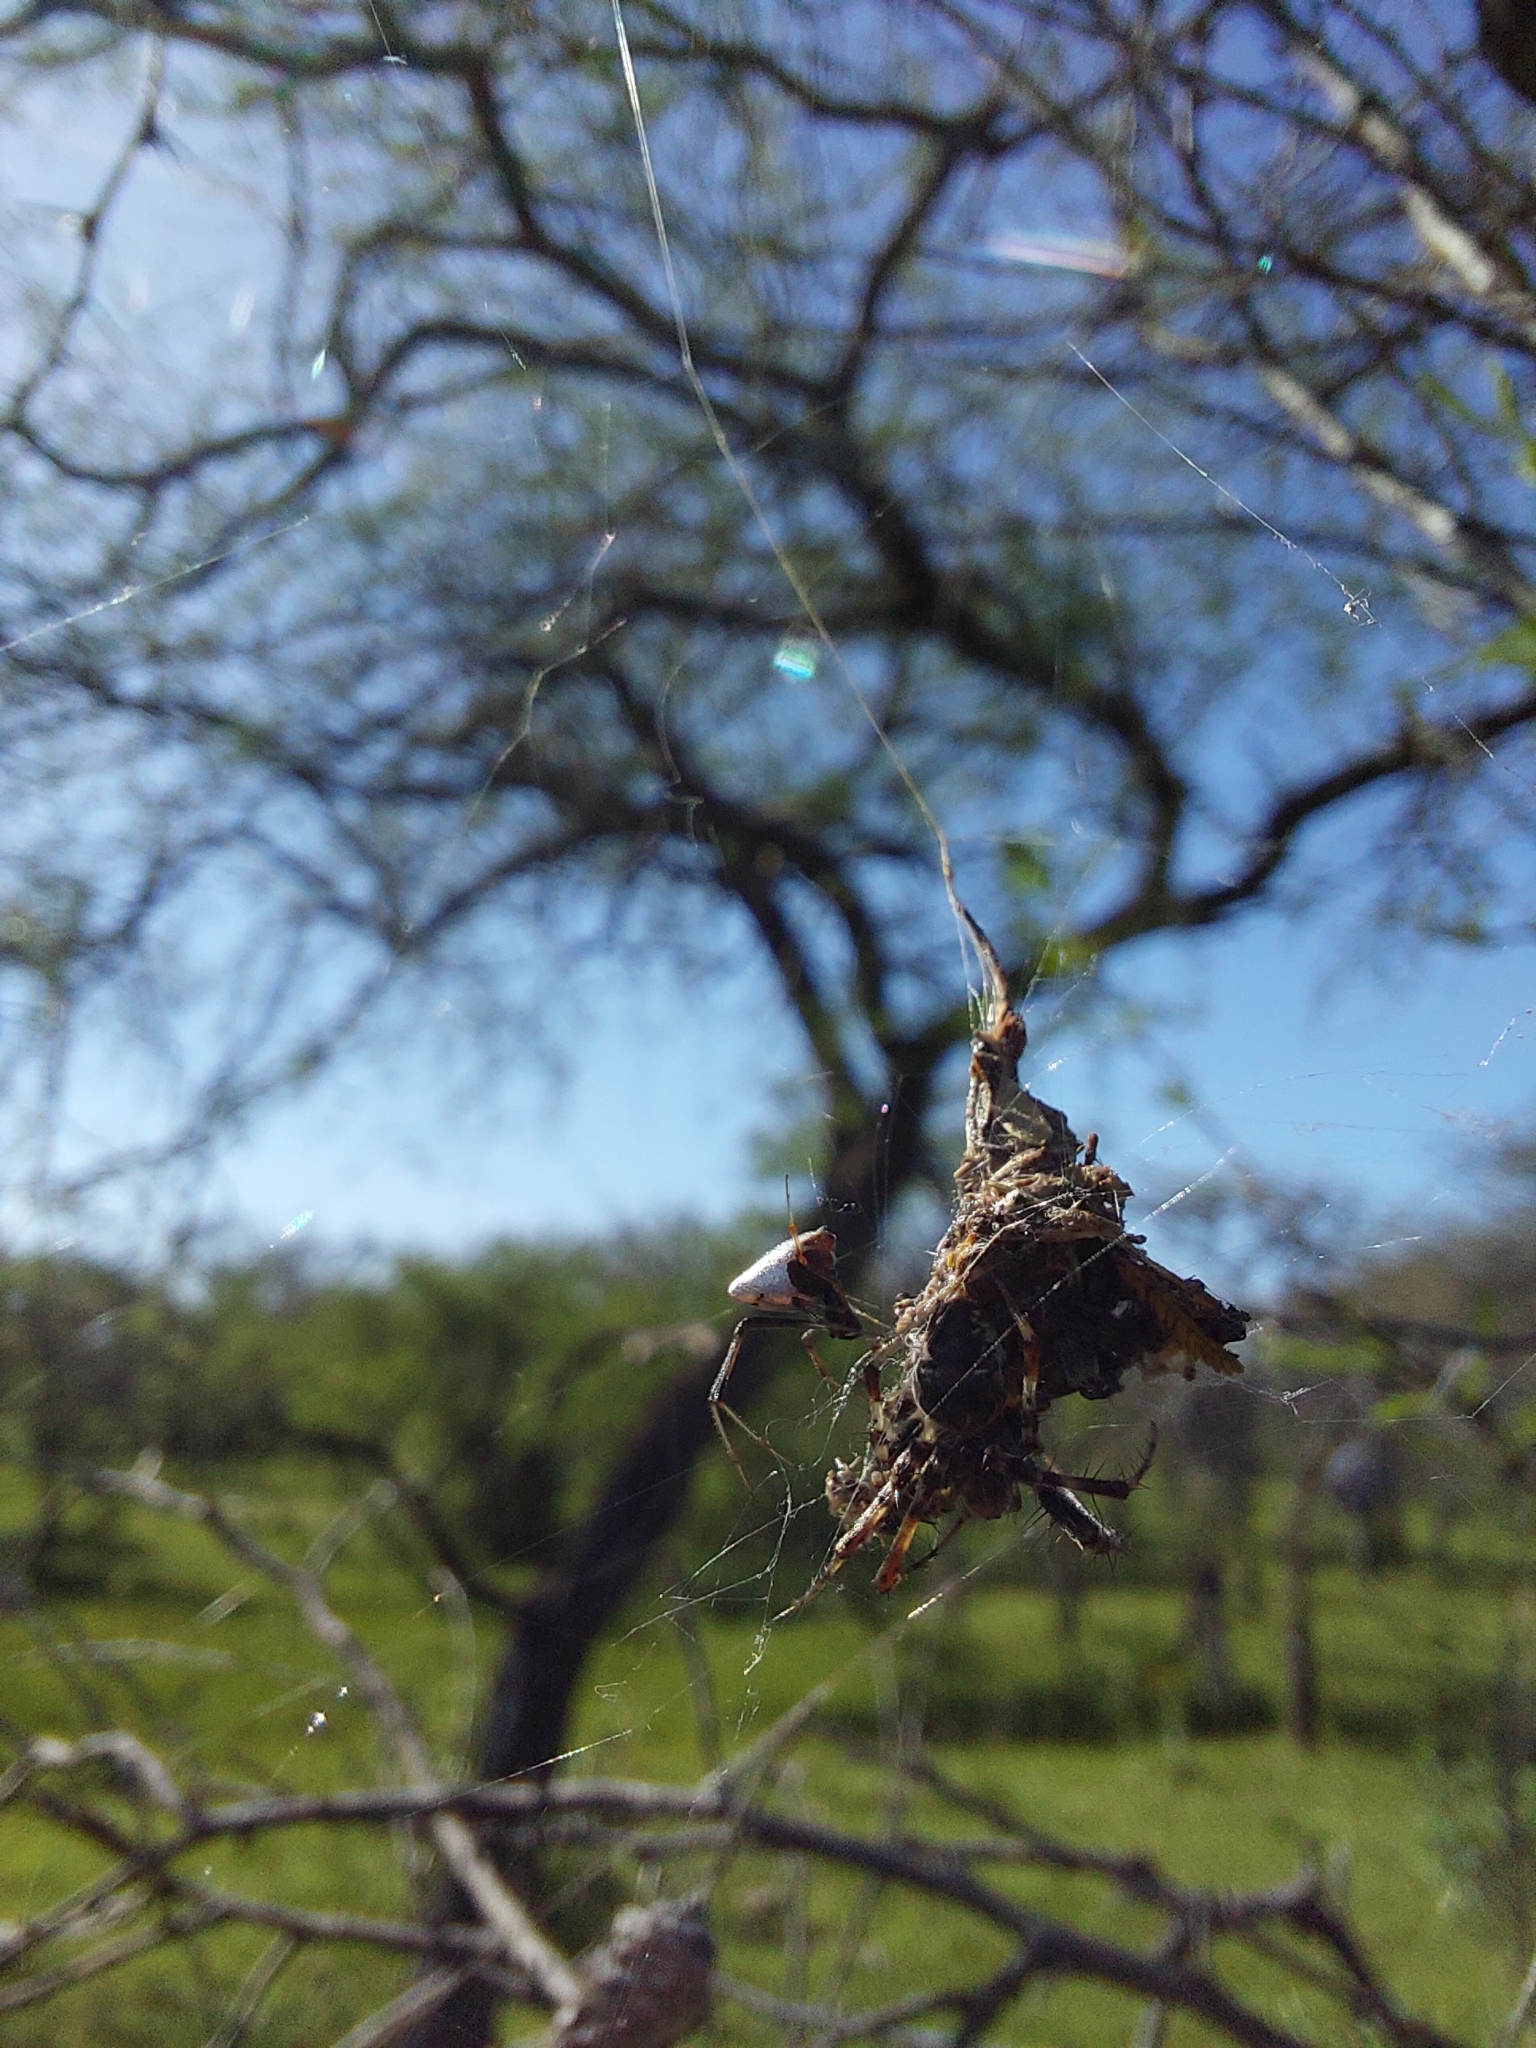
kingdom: Animalia
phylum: Arthropoda
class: Arachnida
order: Araneae
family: Araneidae
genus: Metepeira
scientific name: Metepeira
